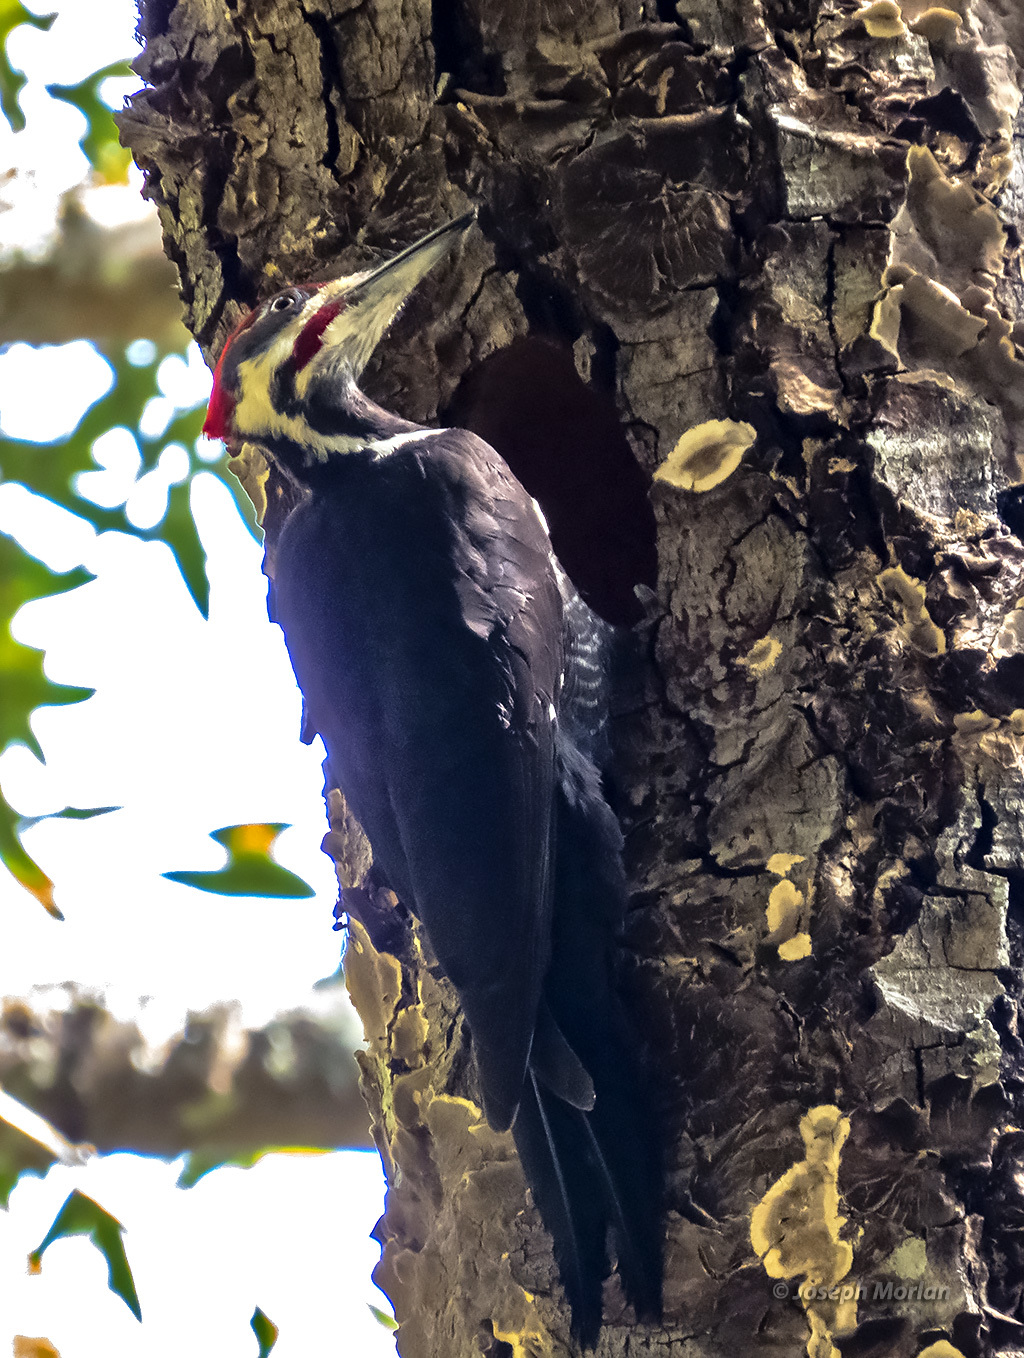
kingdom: Animalia
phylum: Chordata
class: Aves
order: Piciformes
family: Picidae
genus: Dryocopus
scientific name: Dryocopus pileatus
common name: Pileated woodpecker
